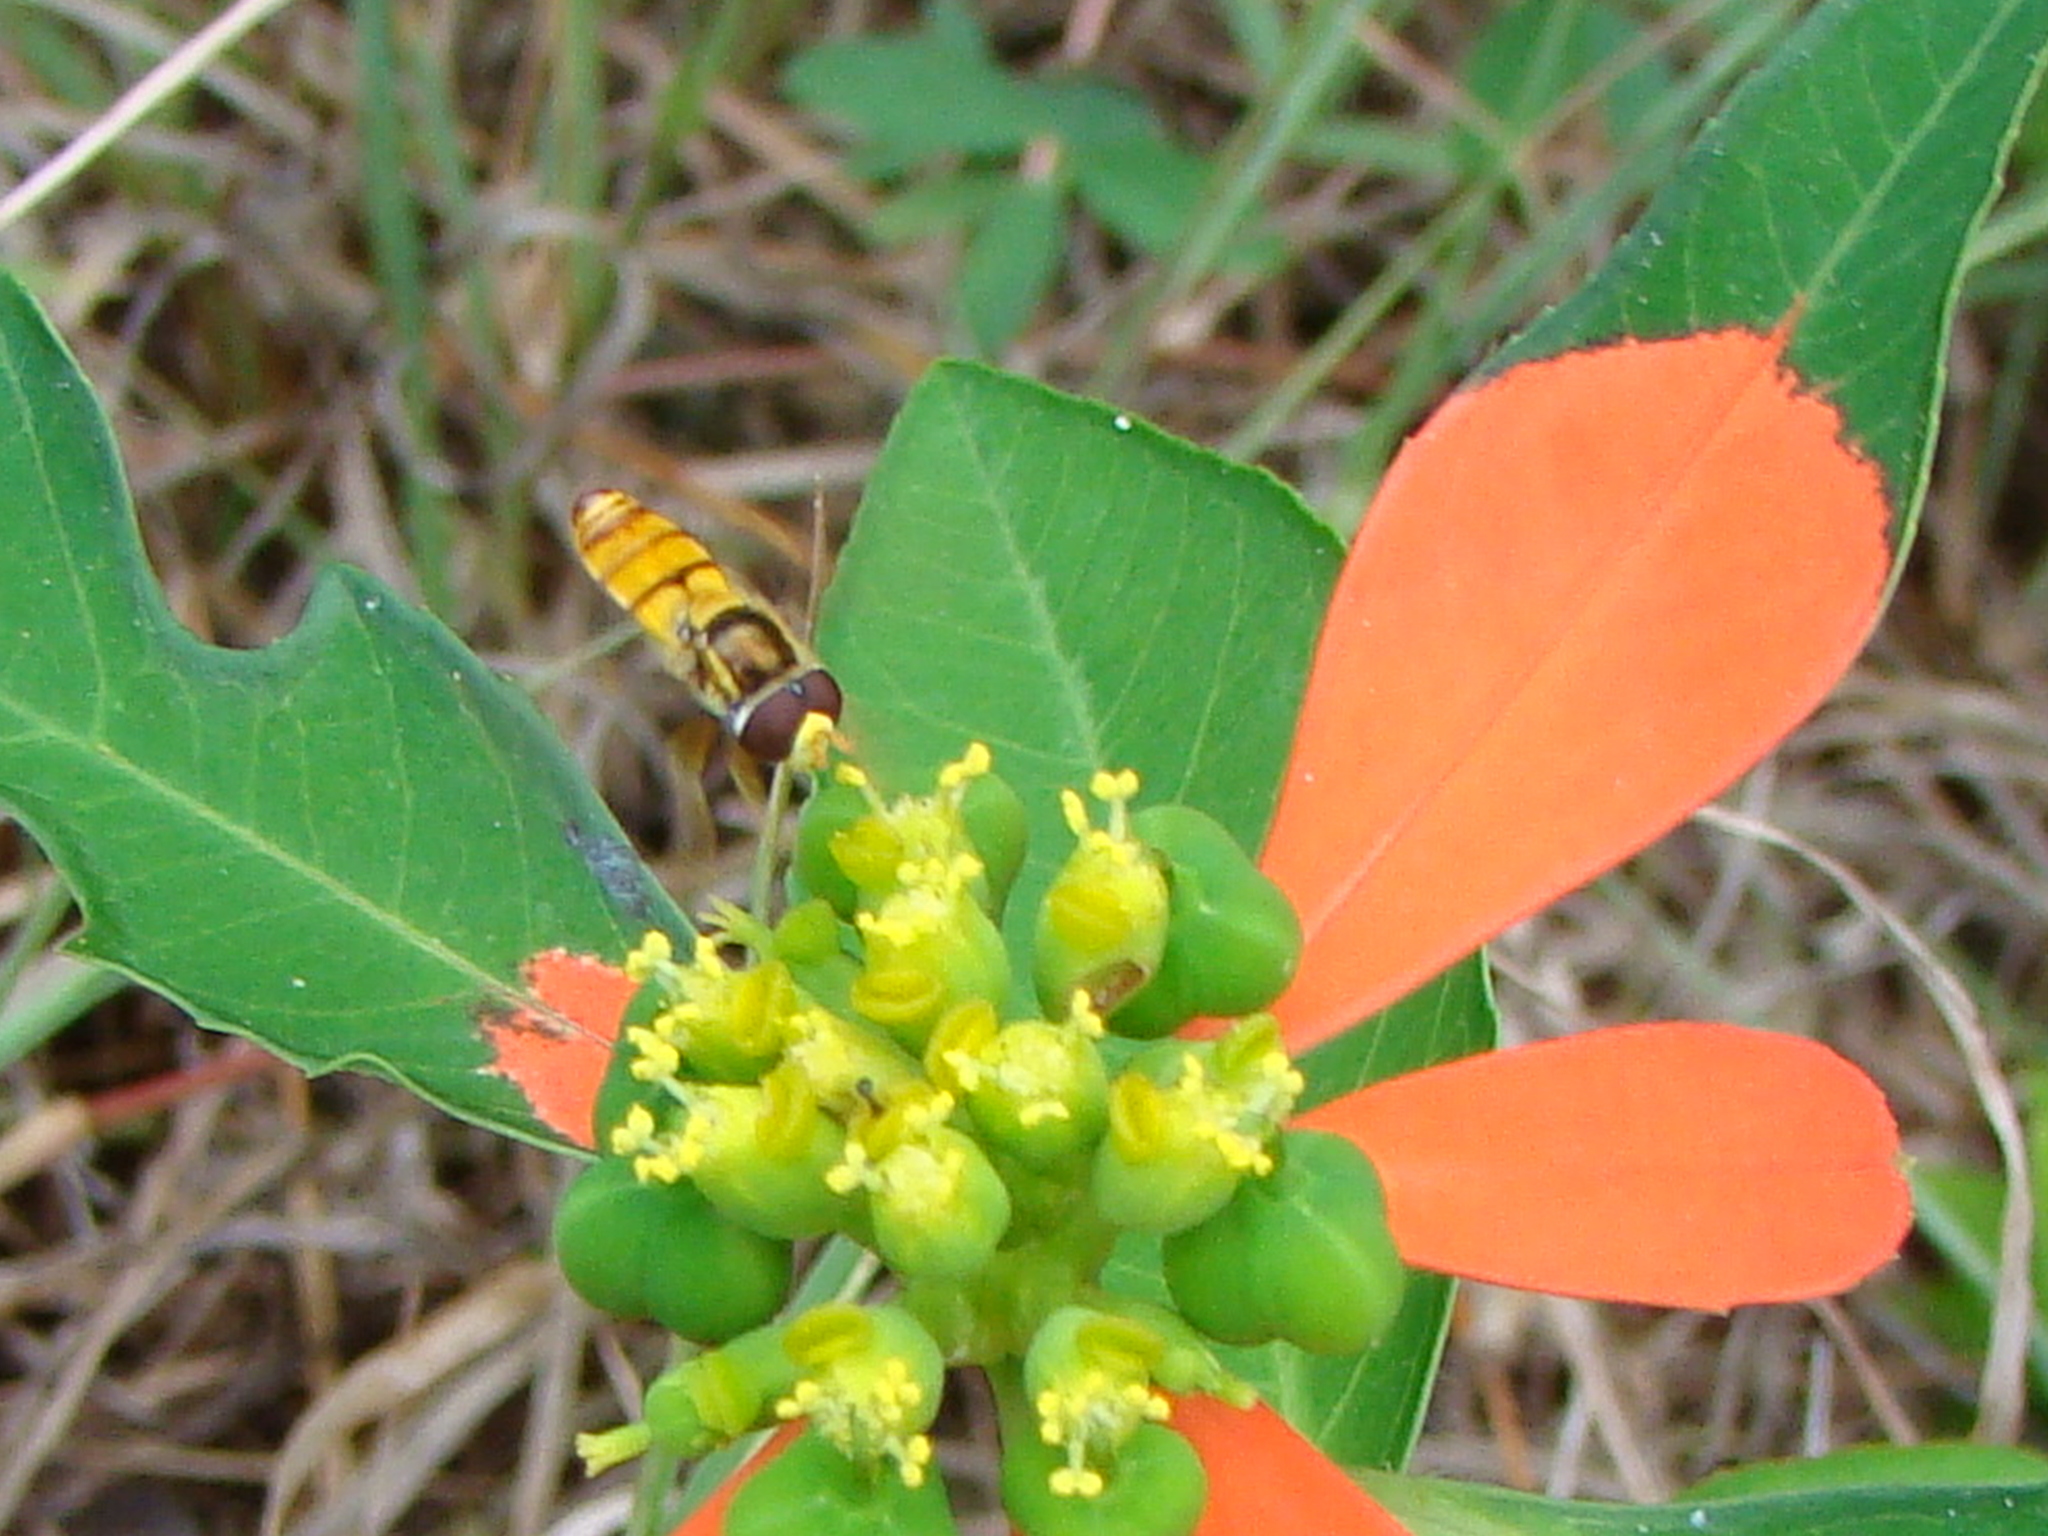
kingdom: Animalia
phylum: Arthropoda
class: Insecta
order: Diptera
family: Syrphidae
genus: Simosyrphus
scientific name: Simosyrphus grandicornis
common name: Hoverfly
